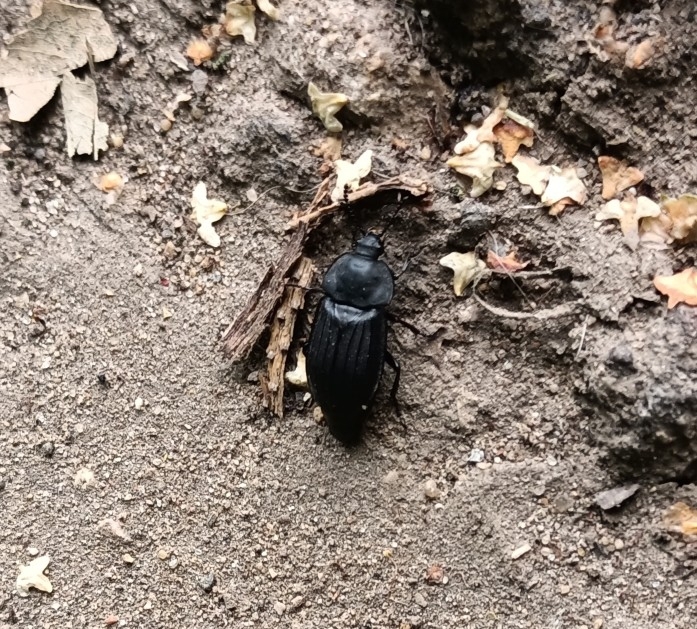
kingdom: Animalia
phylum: Arthropoda
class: Insecta
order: Coleoptera
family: Staphylinidae
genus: Silpha
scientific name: Silpha tristis
